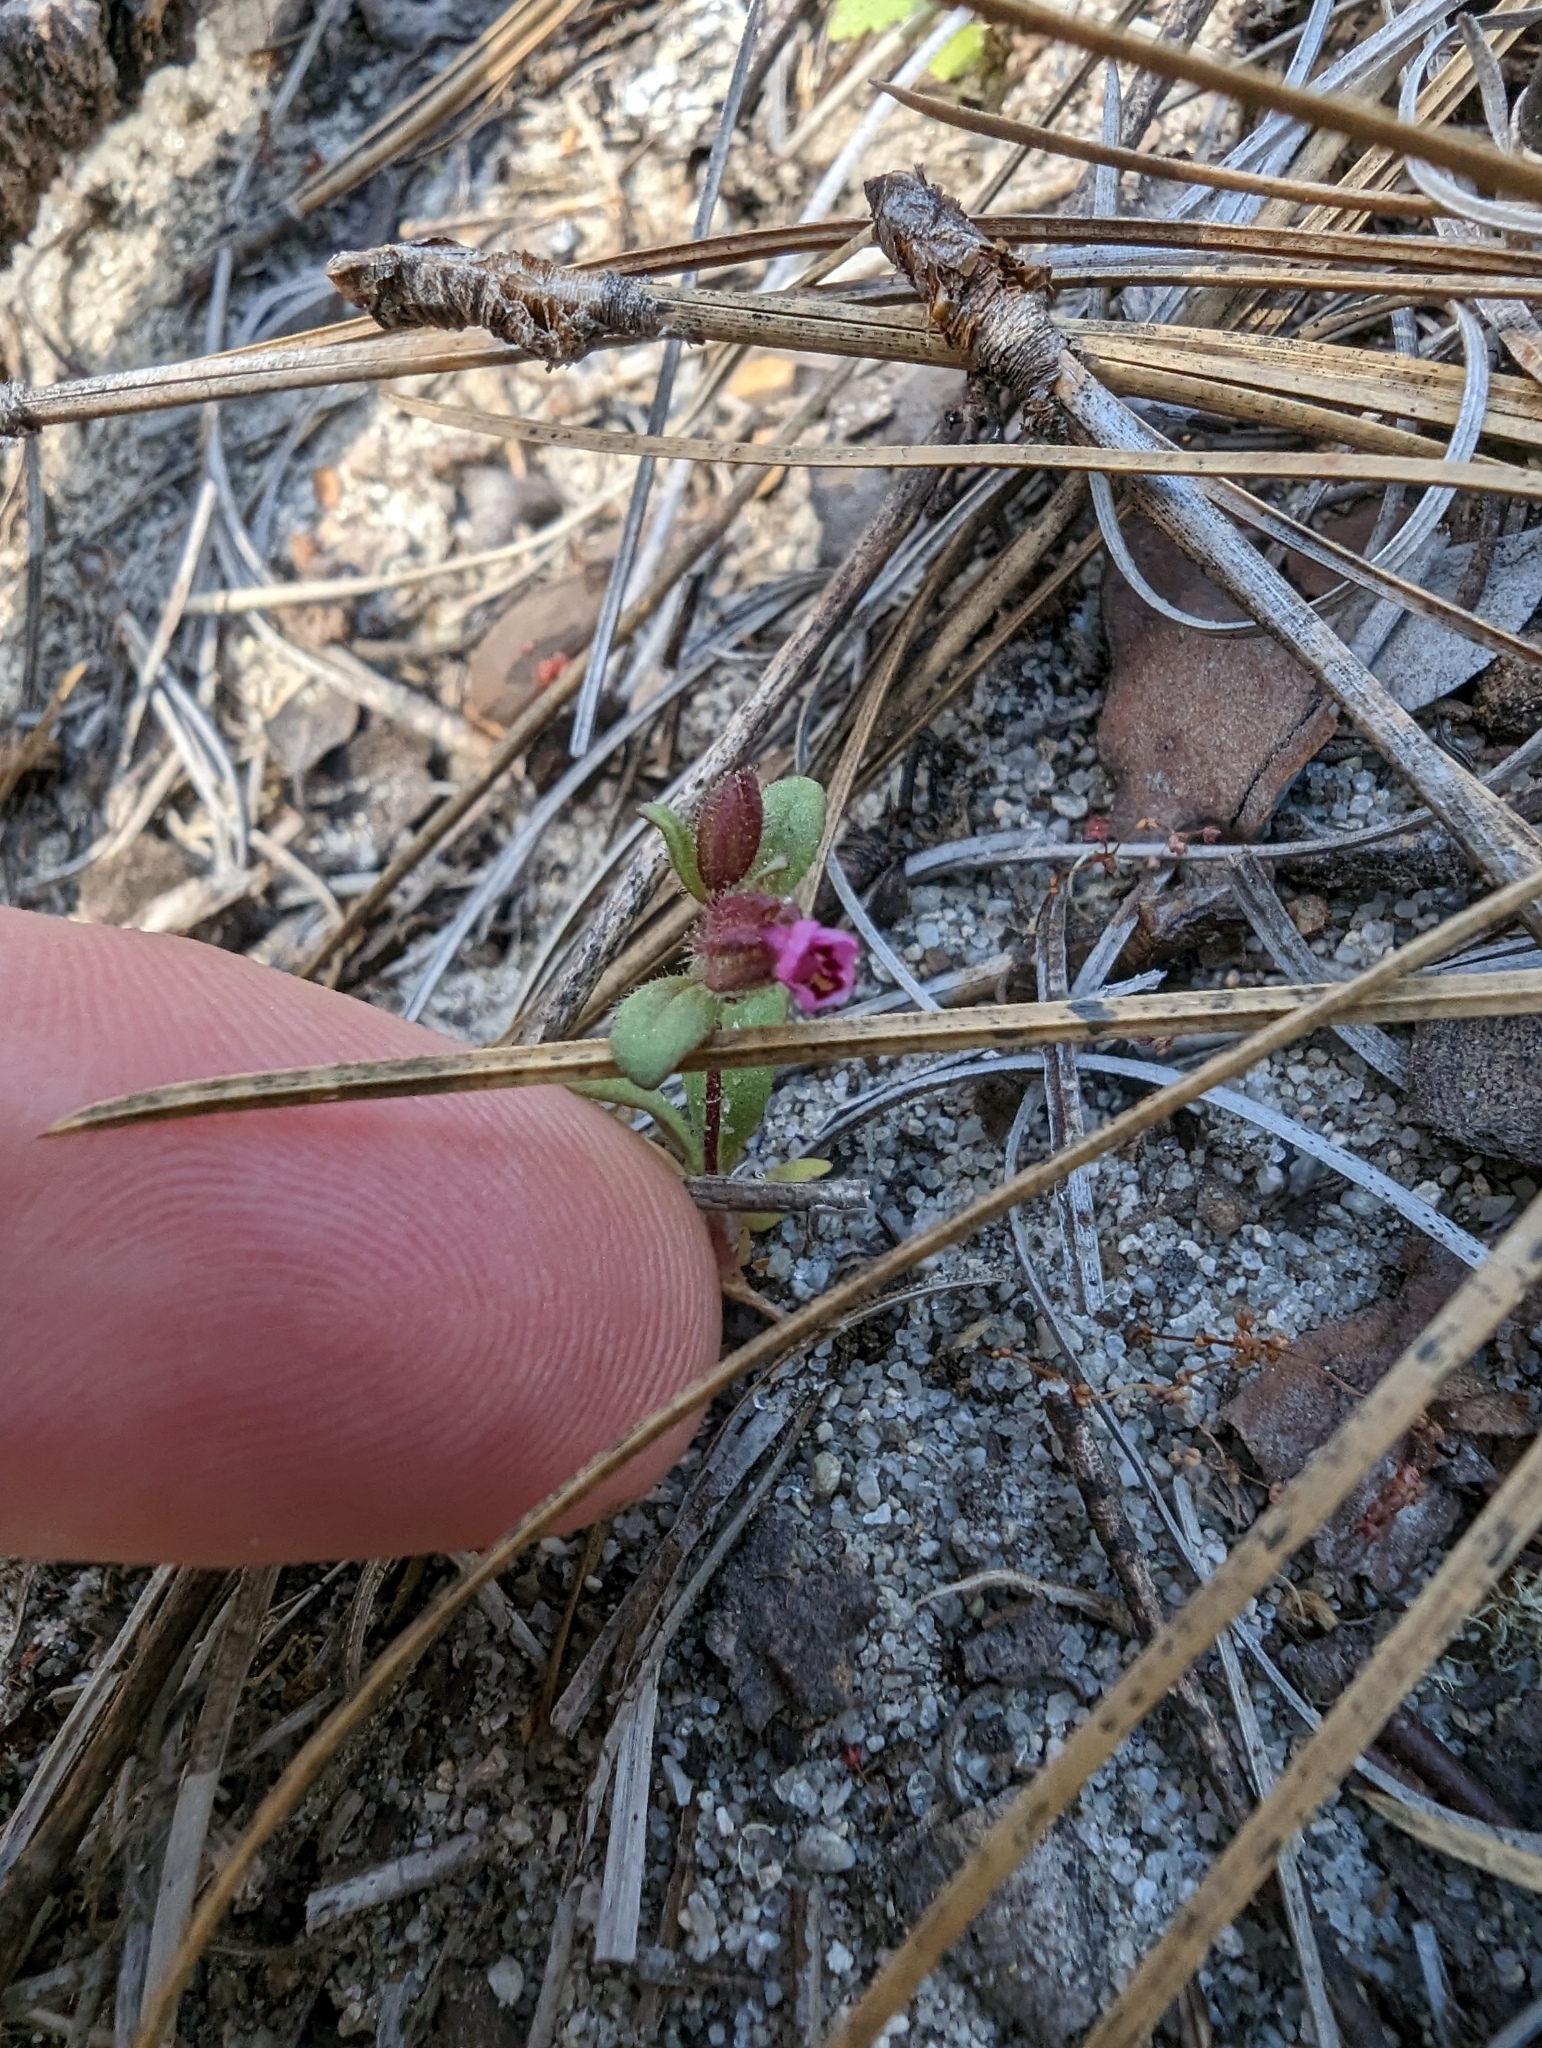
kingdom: Plantae
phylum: Tracheophyta
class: Magnoliopsida
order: Lamiales
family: Phrymaceae
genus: Diplacus
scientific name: Diplacus rattanii
